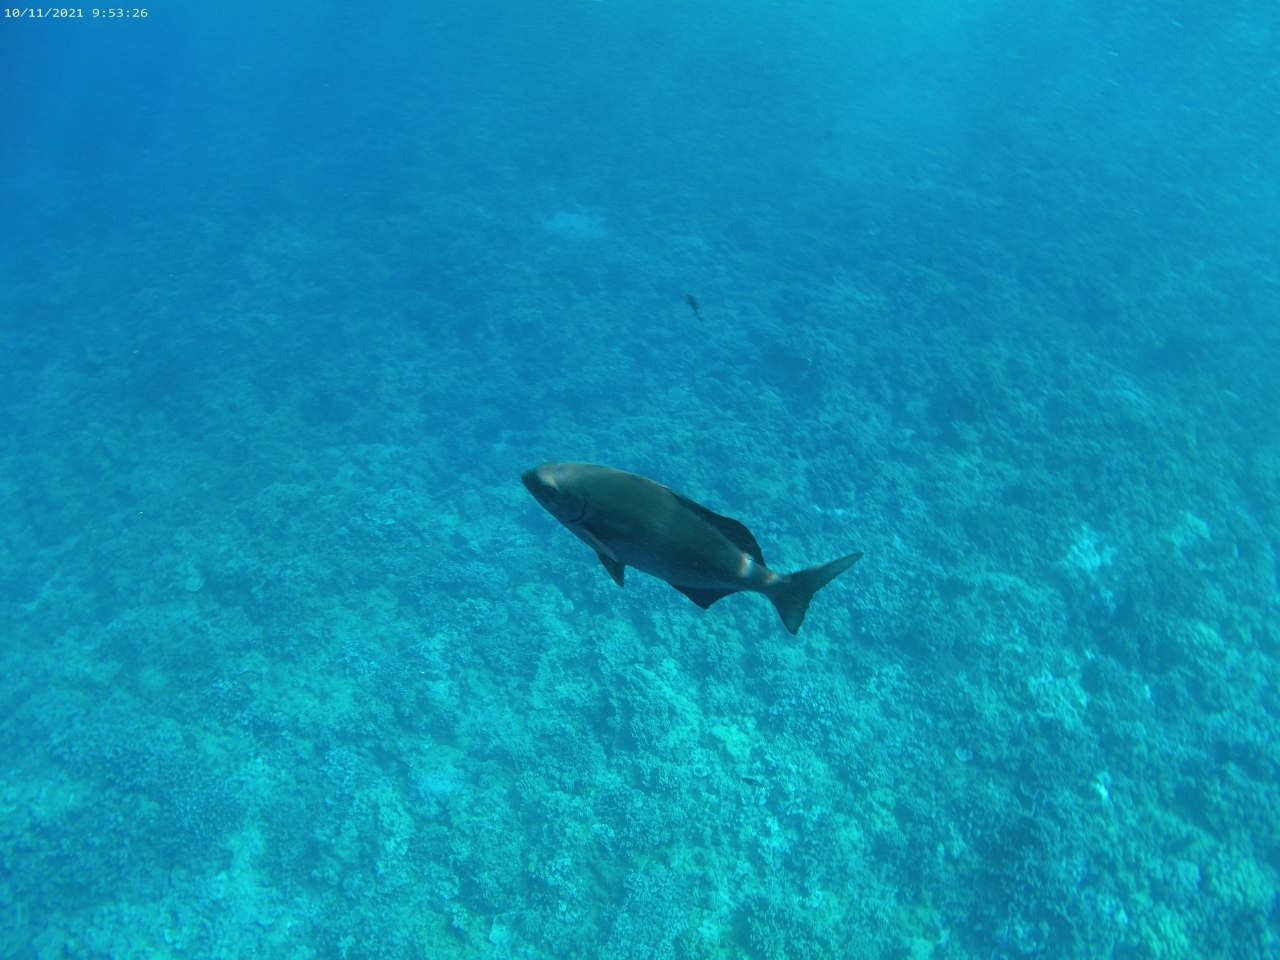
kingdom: Animalia
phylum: Chordata
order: Perciformes
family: Kyphosidae
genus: Kyphosus
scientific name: Kyphosus cinerascens
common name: Topsail drummer
